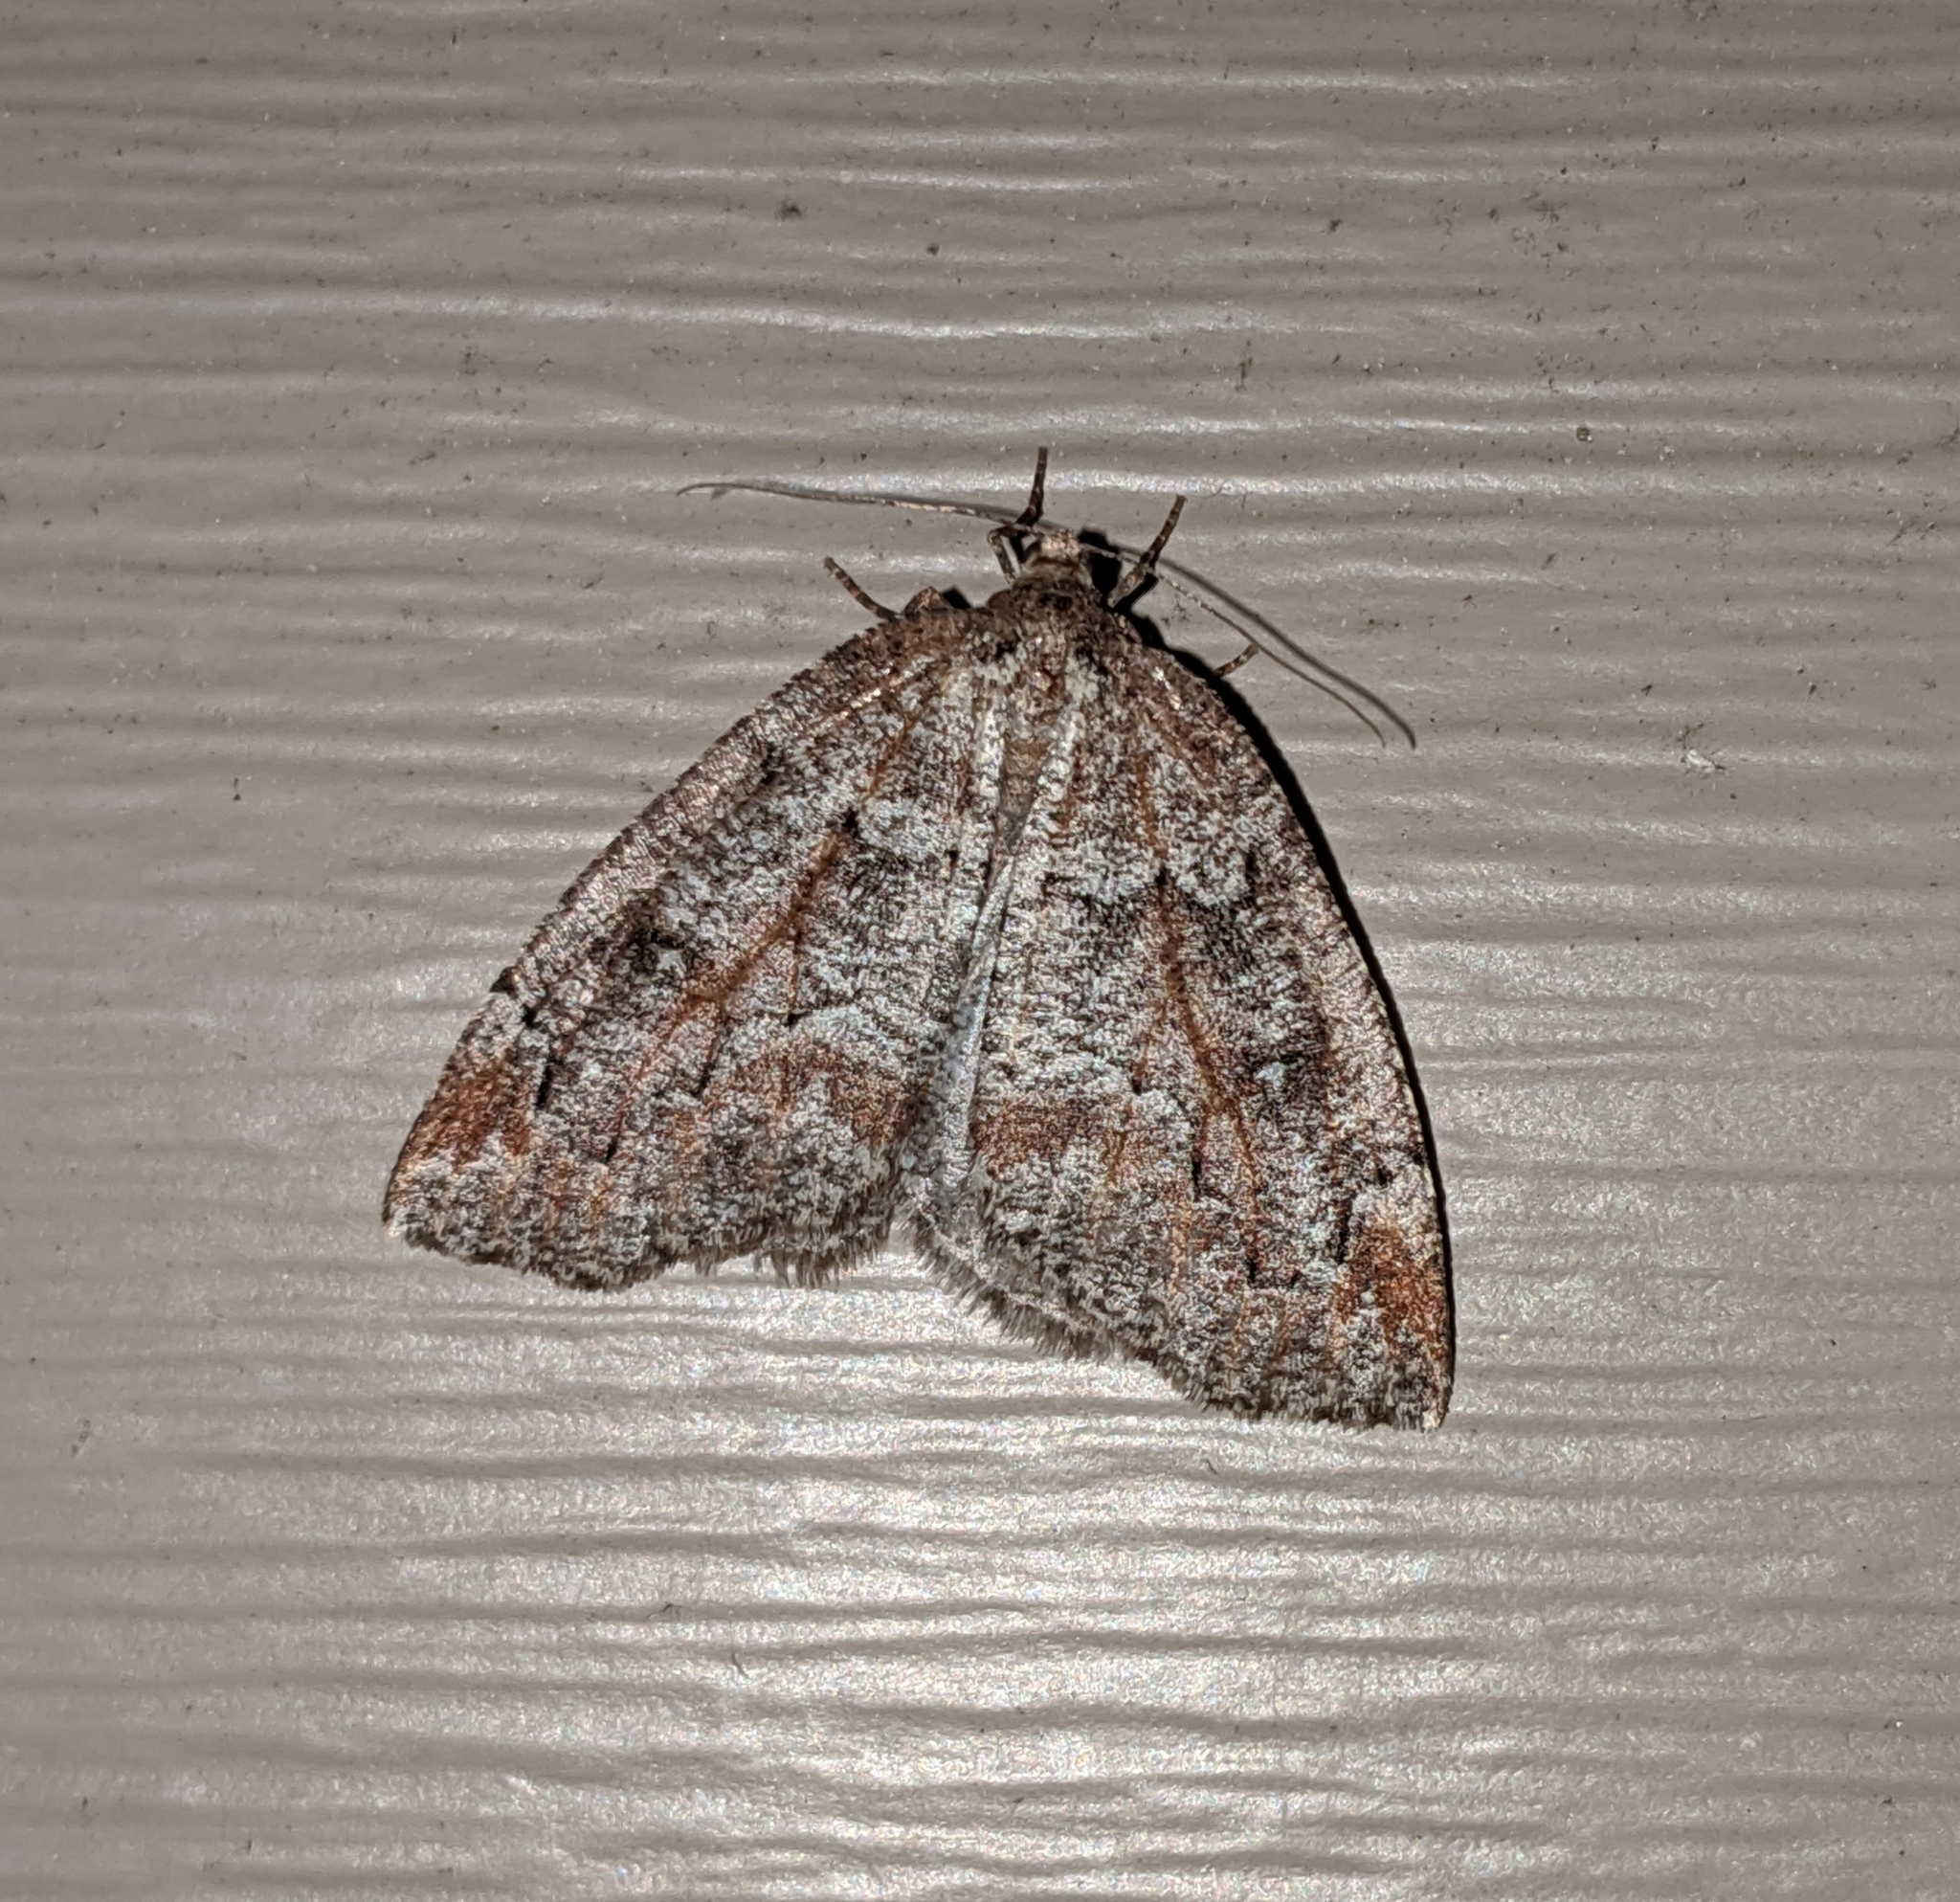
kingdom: Animalia
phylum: Arthropoda
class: Insecta
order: Lepidoptera
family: Geometridae
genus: Spodolepis
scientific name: Spodolepis danbyi
